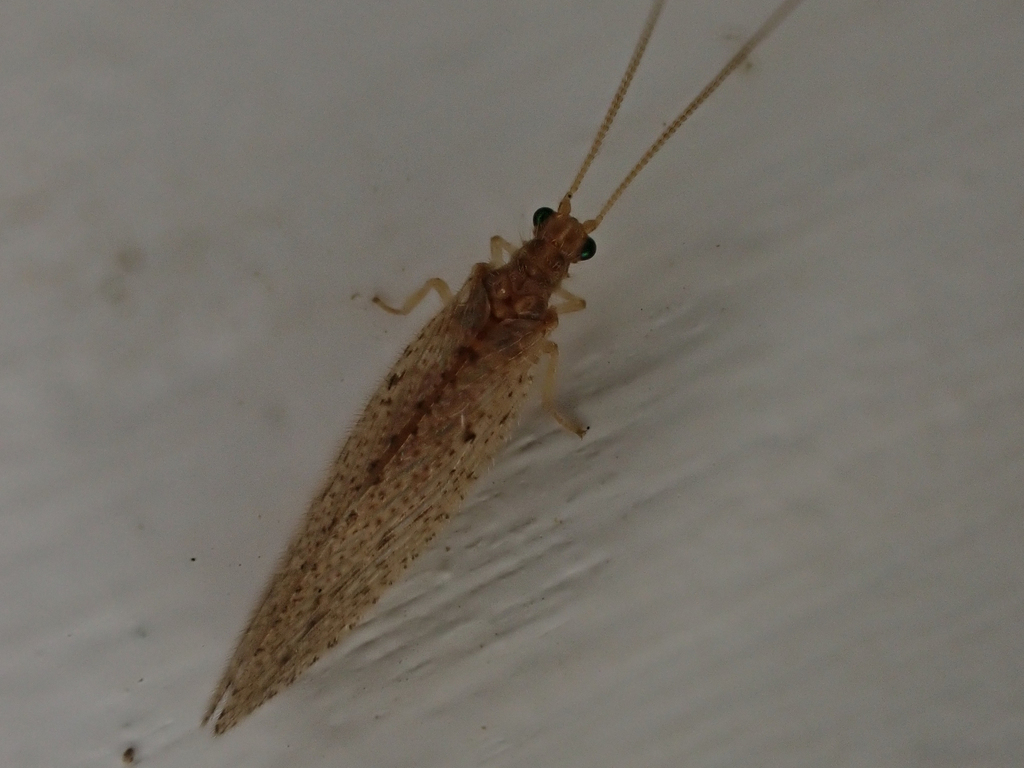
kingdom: Animalia
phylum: Arthropoda
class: Insecta
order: Neuroptera
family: Hemerobiidae
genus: Micromus
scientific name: Micromus subanticus
